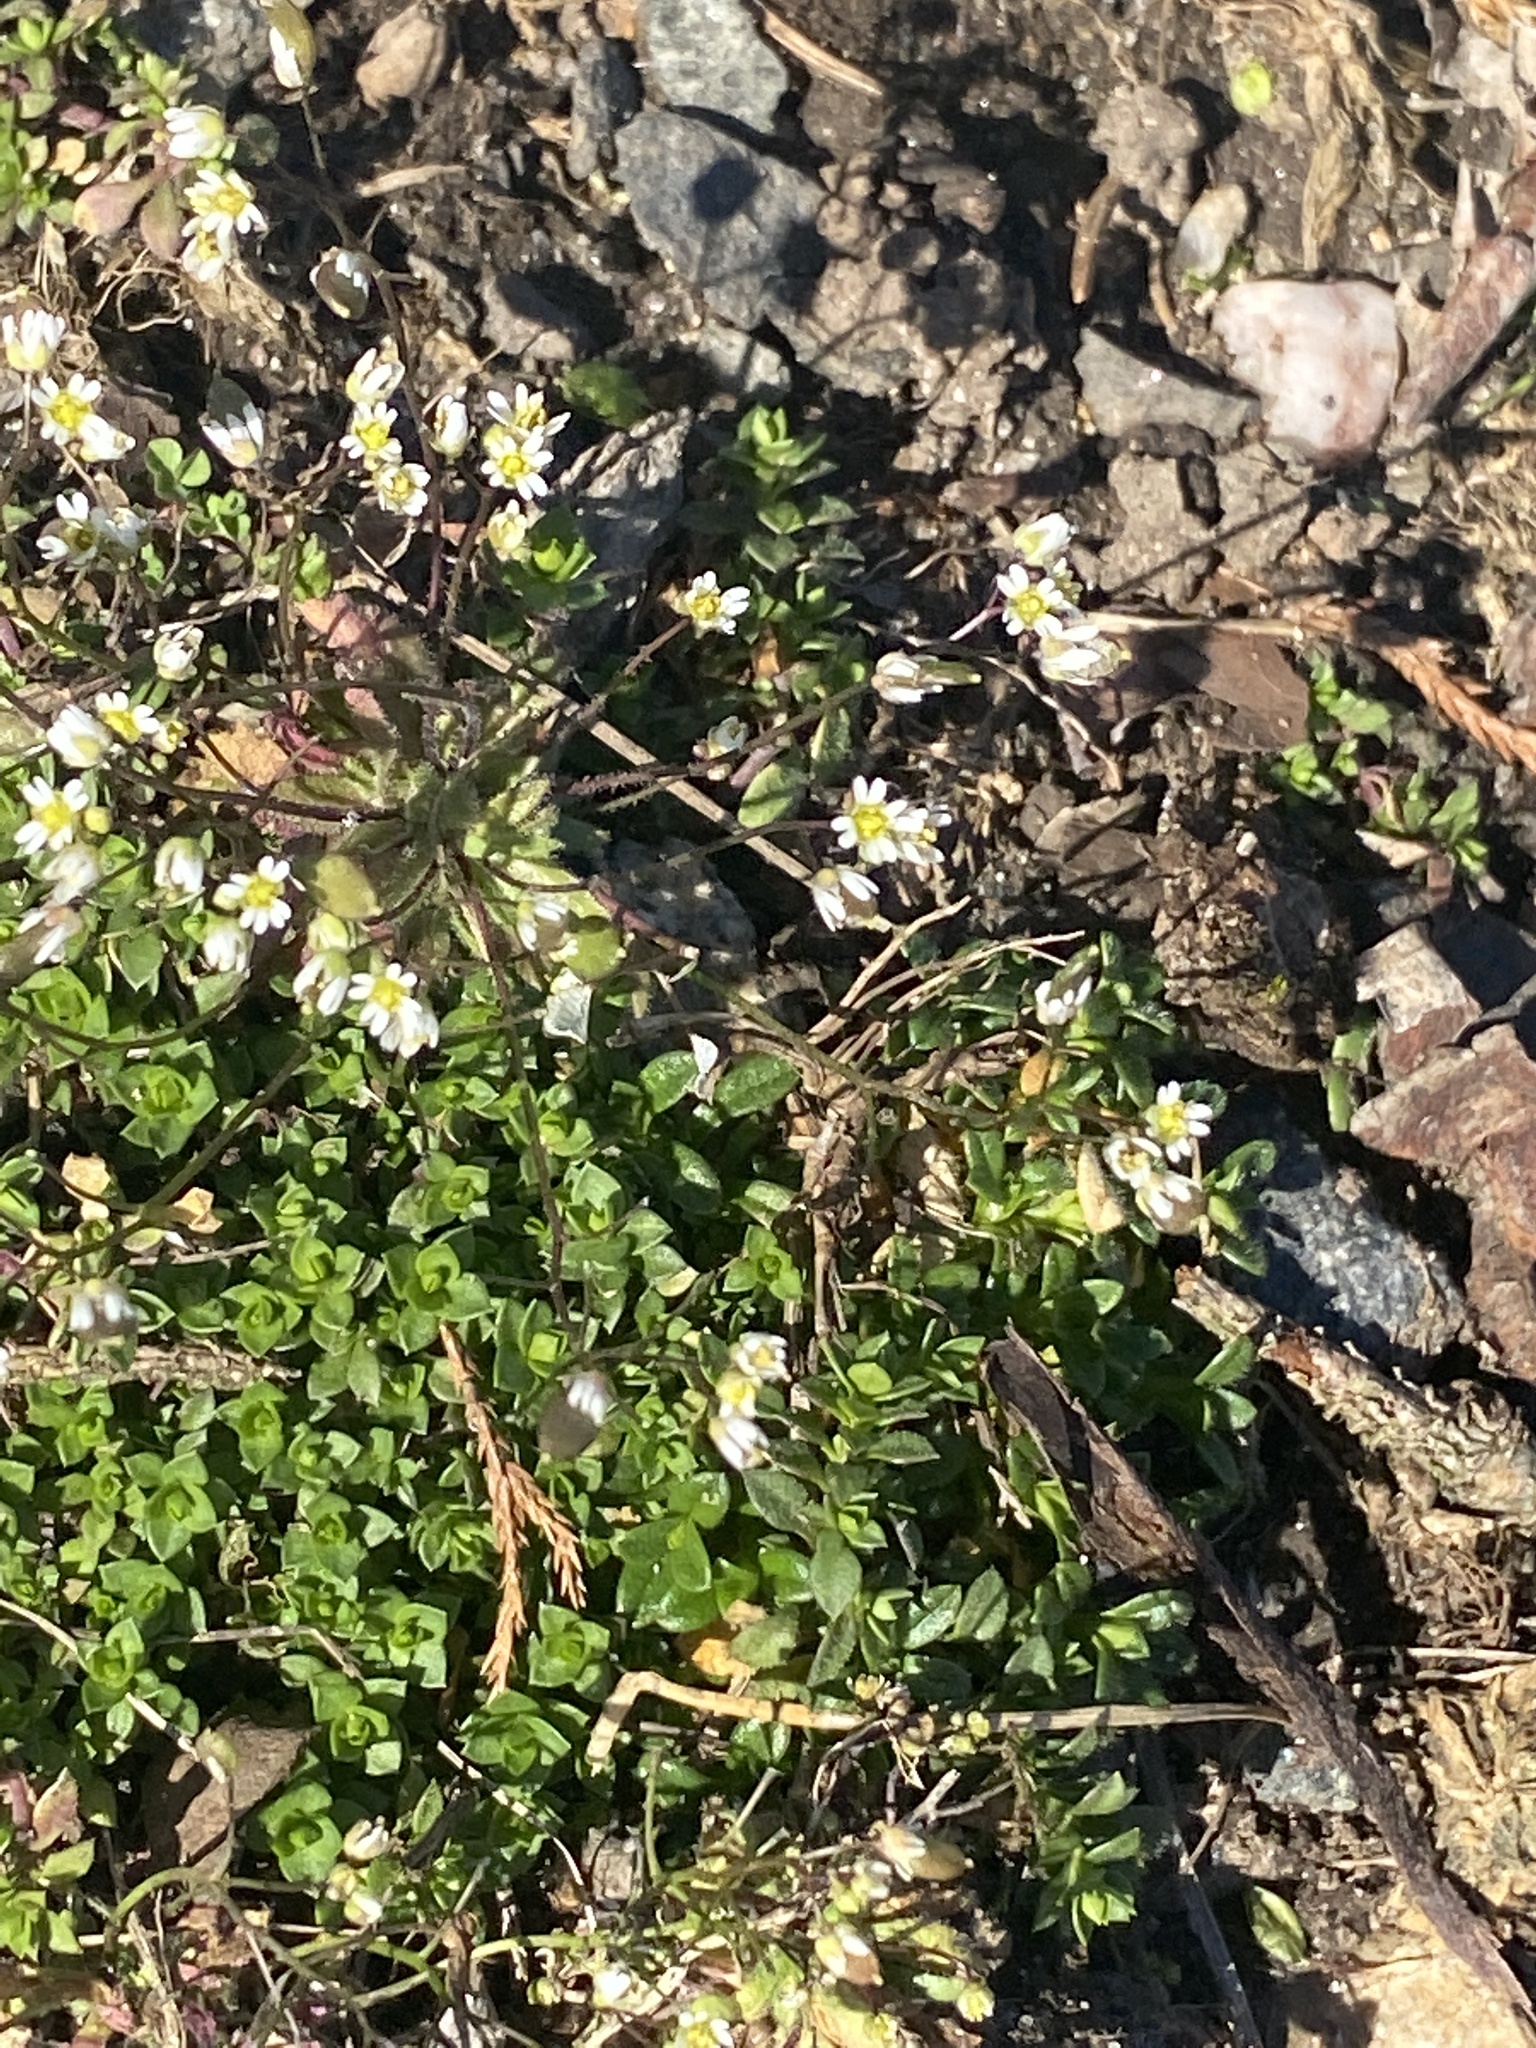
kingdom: Plantae
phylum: Tracheophyta
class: Magnoliopsida
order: Brassicales
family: Brassicaceae
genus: Draba
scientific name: Draba verna
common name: Spring draba
